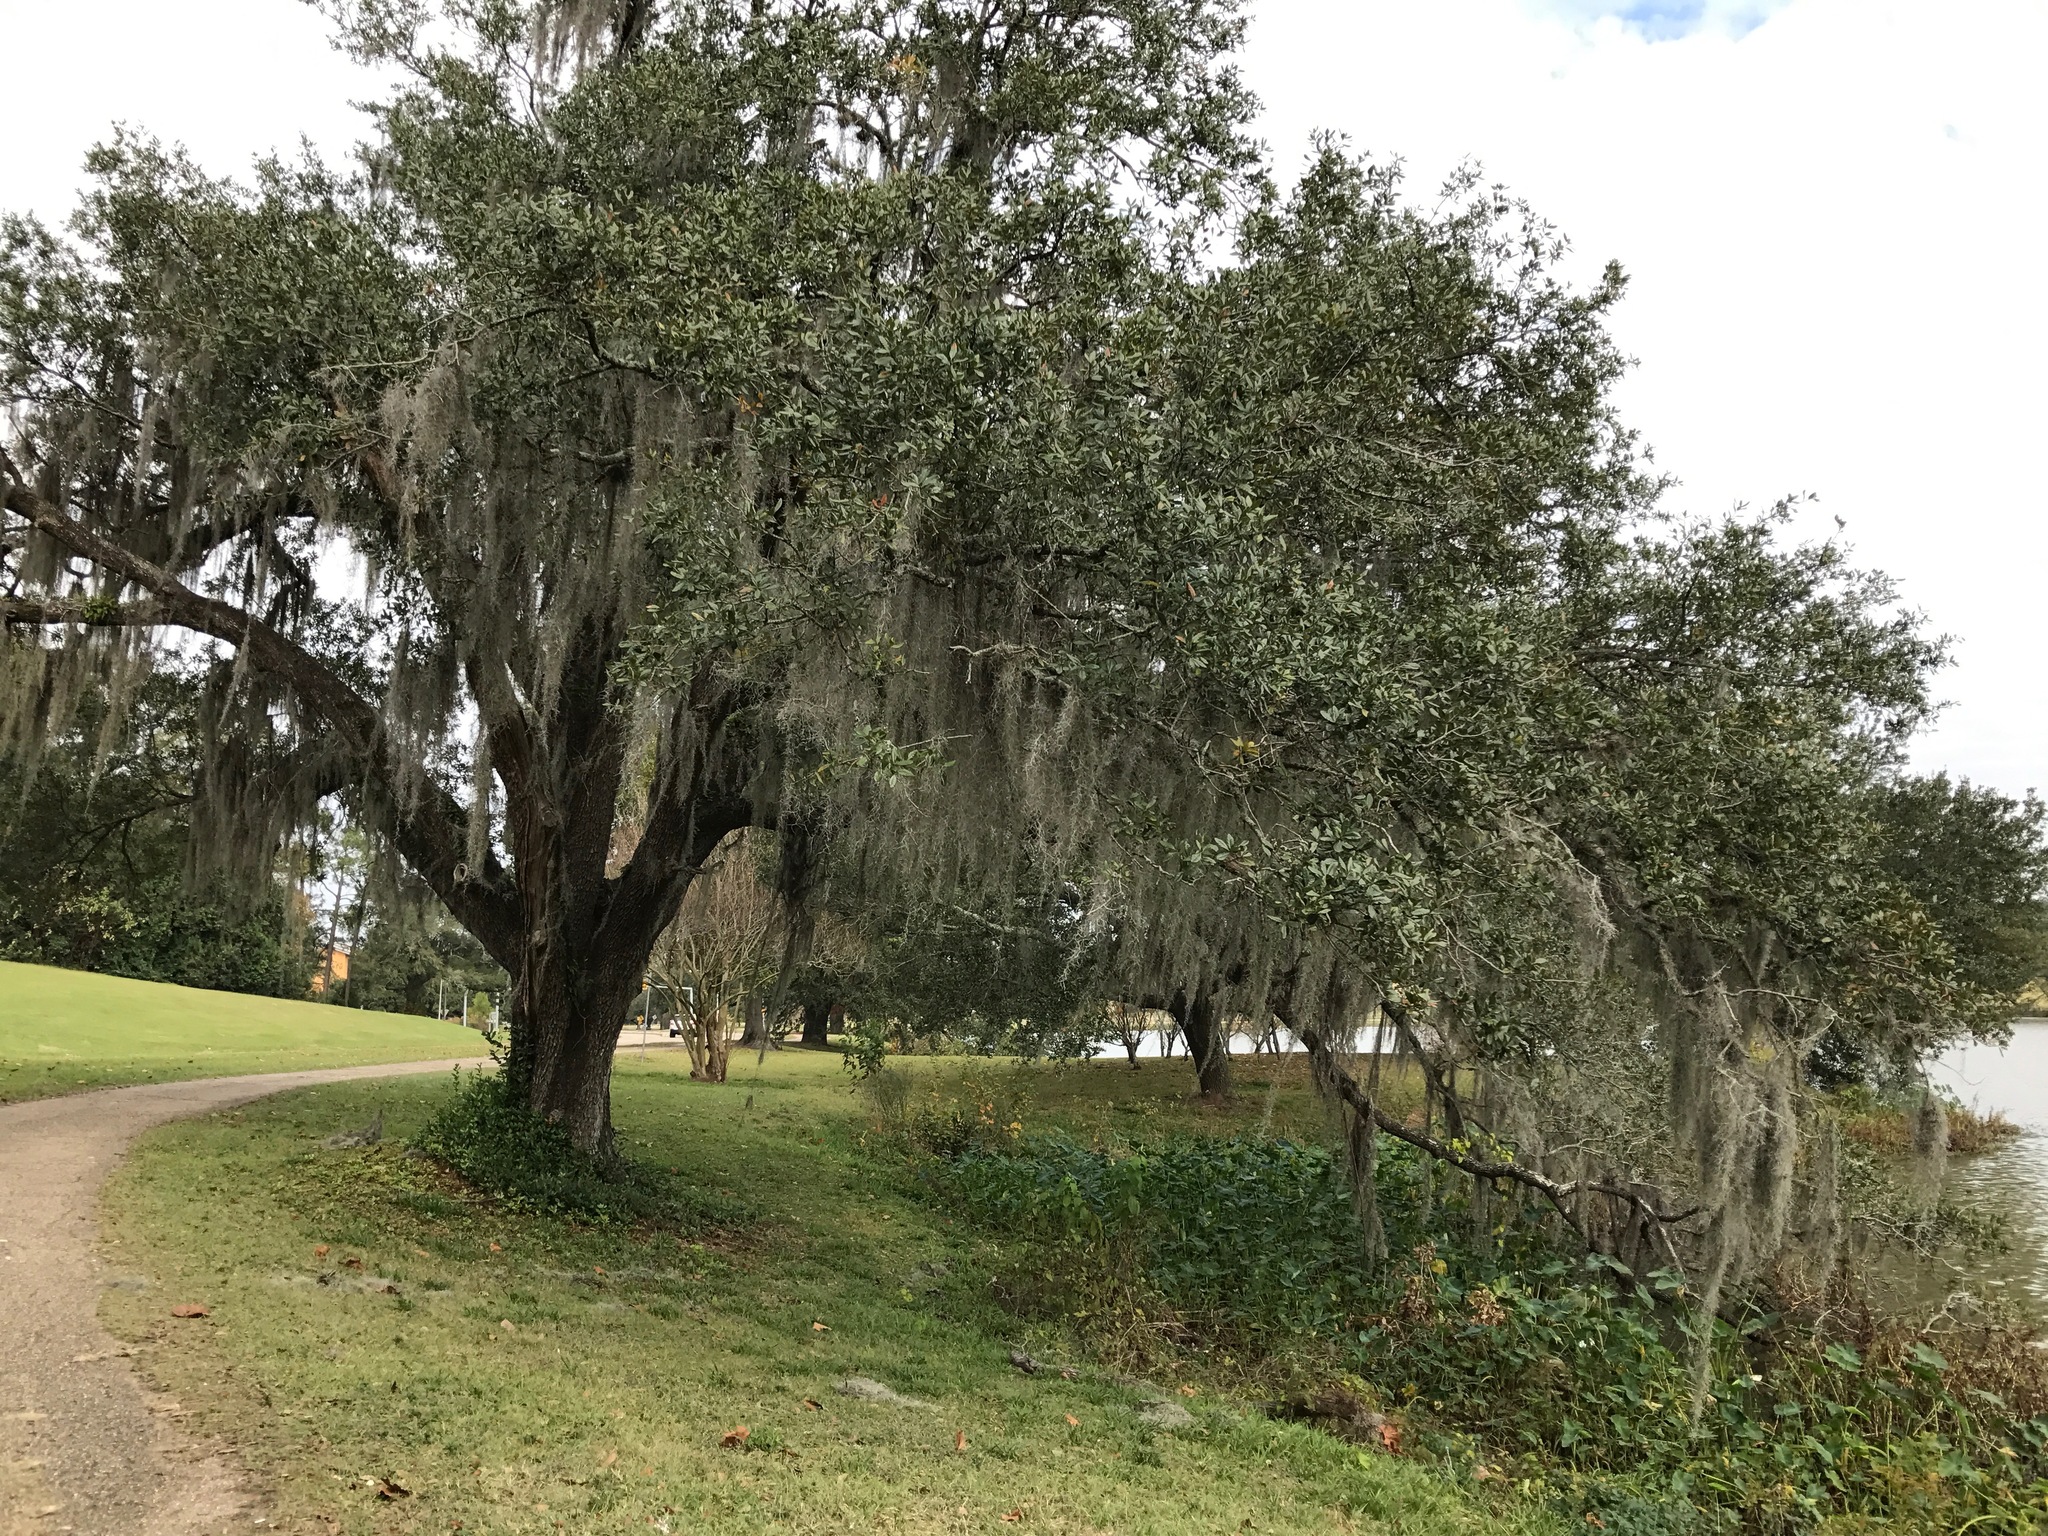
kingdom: Plantae
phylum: Tracheophyta
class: Liliopsida
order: Poales
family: Bromeliaceae
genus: Tillandsia
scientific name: Tillandsia usneoides
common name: Spanish moss
